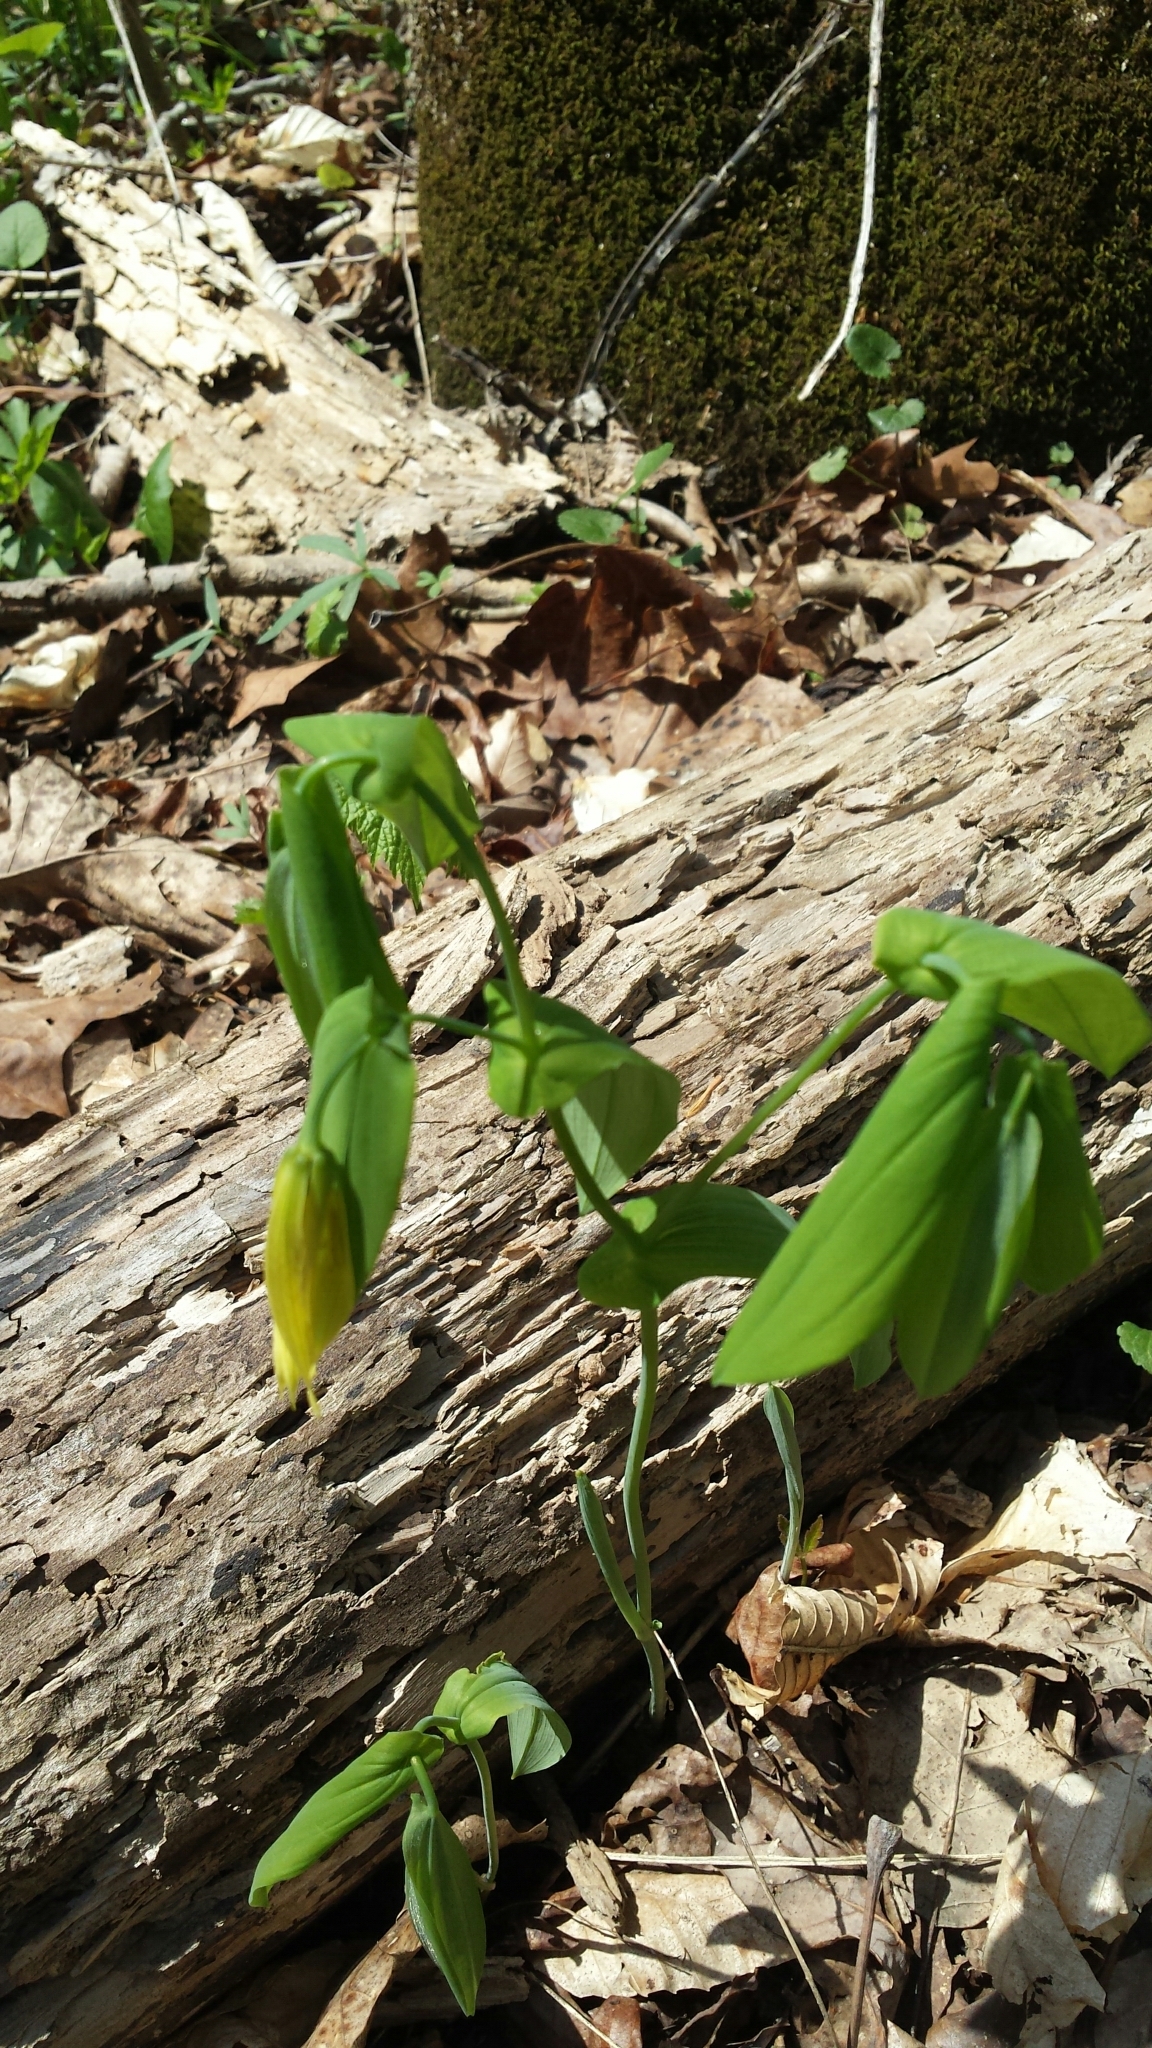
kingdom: Plantae
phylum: Tracheophyta
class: Liliopsida
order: Liliales
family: Colchicaceae
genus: Uvularia
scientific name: Uvularia grandiflora
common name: Bellwort
